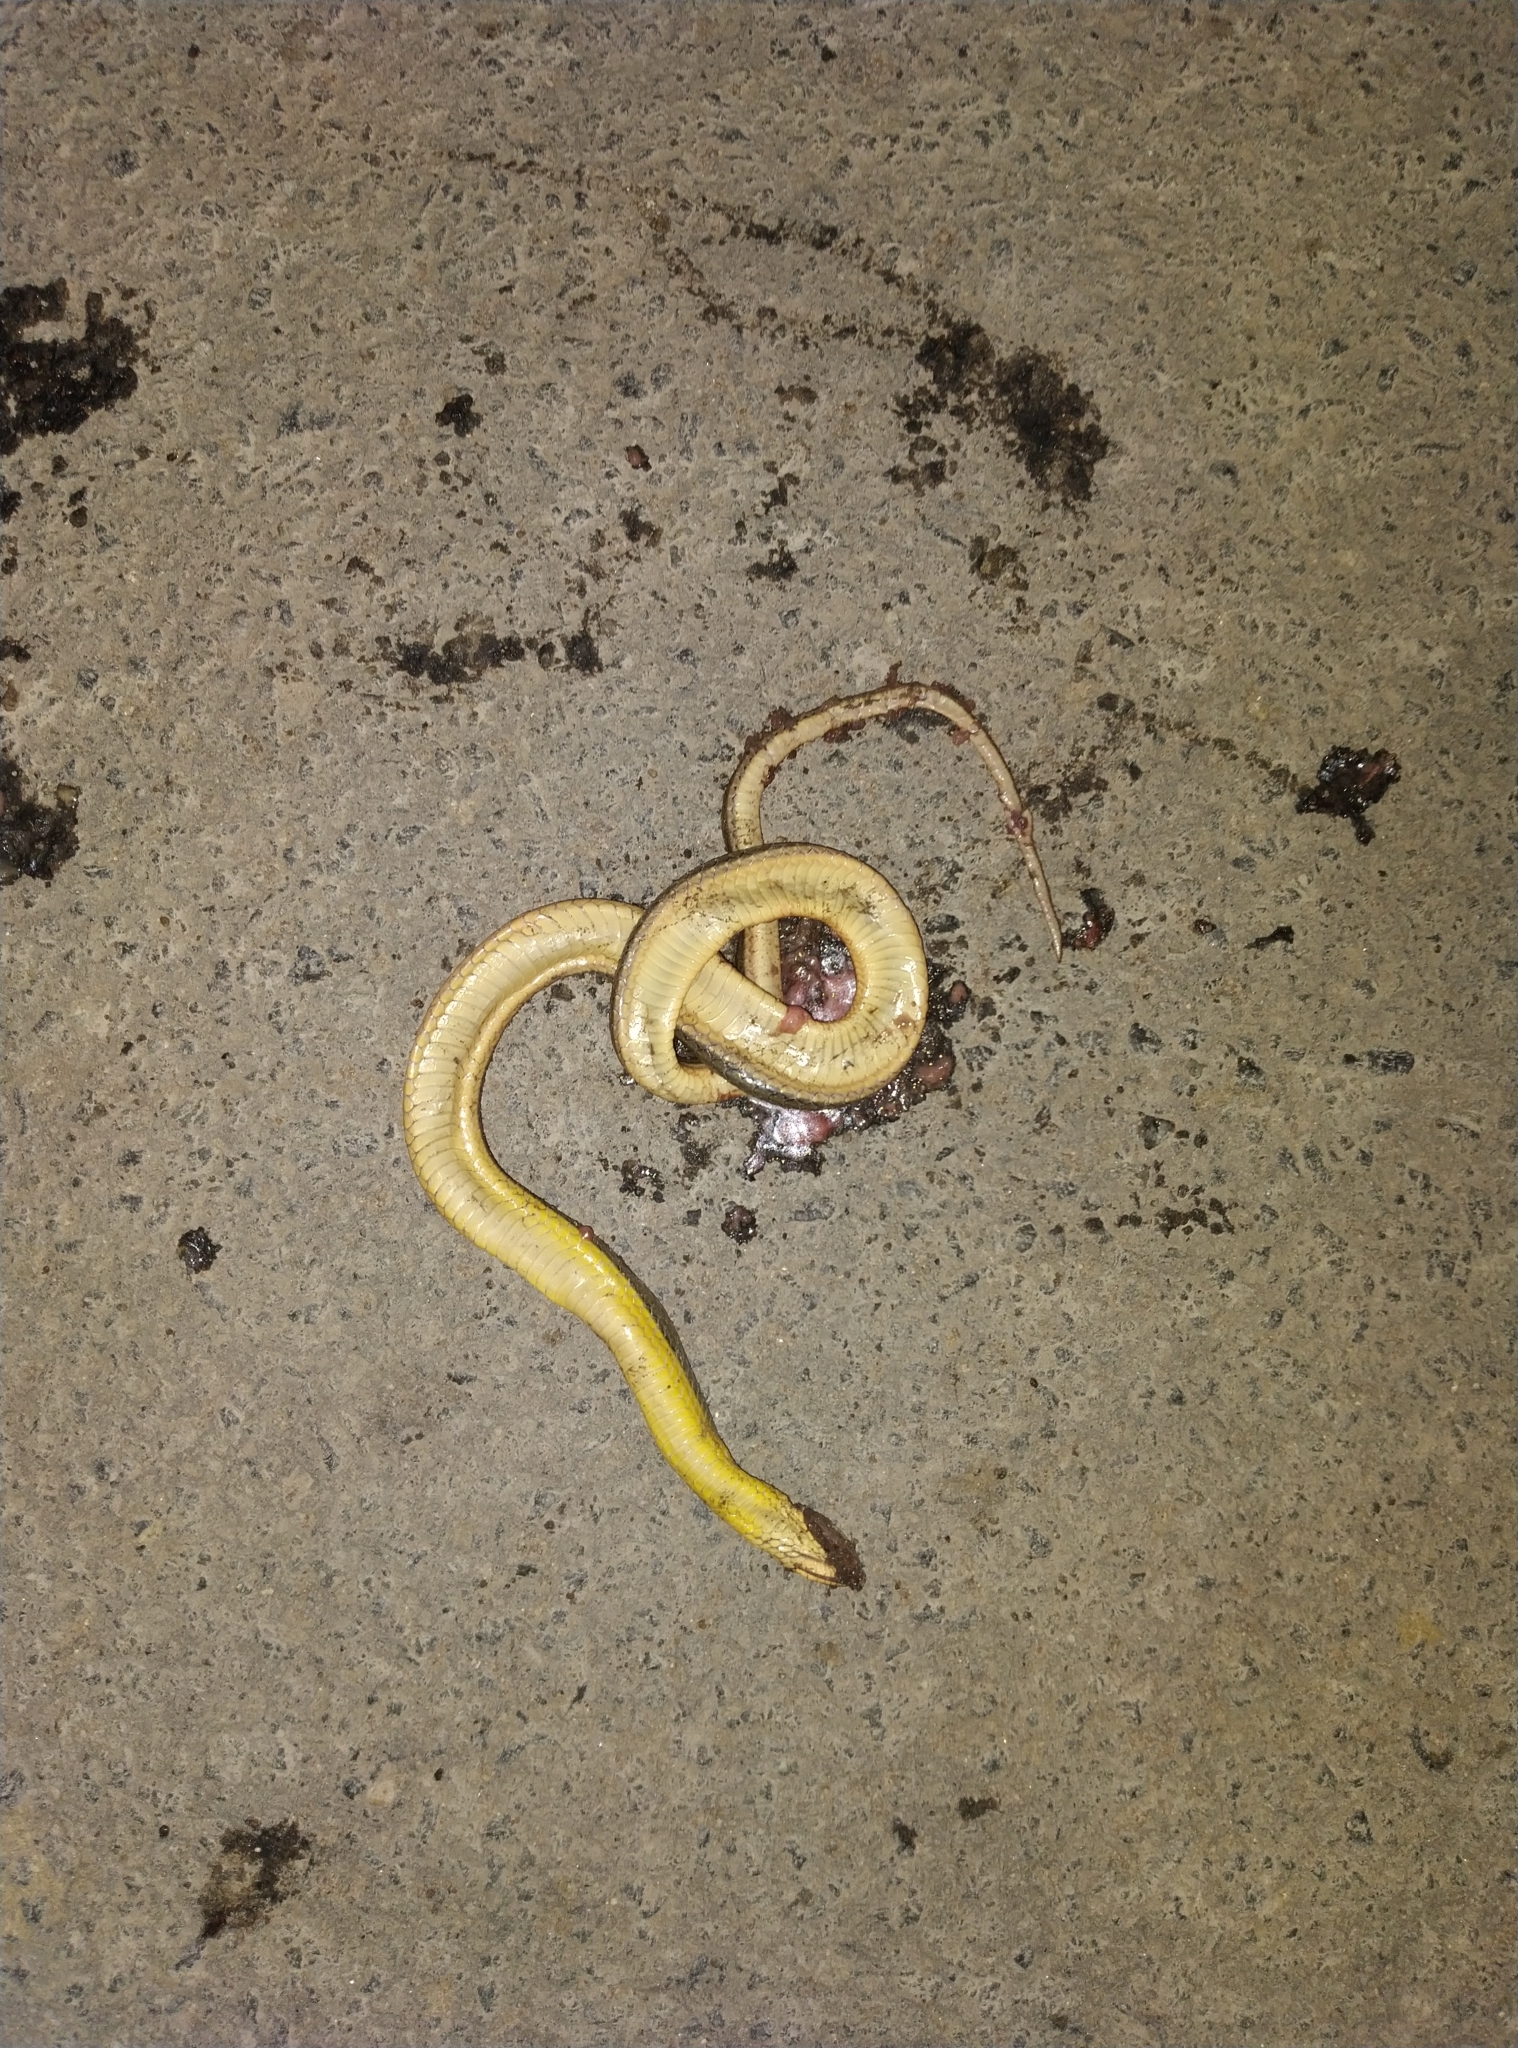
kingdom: Animalia
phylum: Chordata
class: Squamata
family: Colubridae
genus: Atretium
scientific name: Atretium schistosum
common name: Olive keelback wart snake
